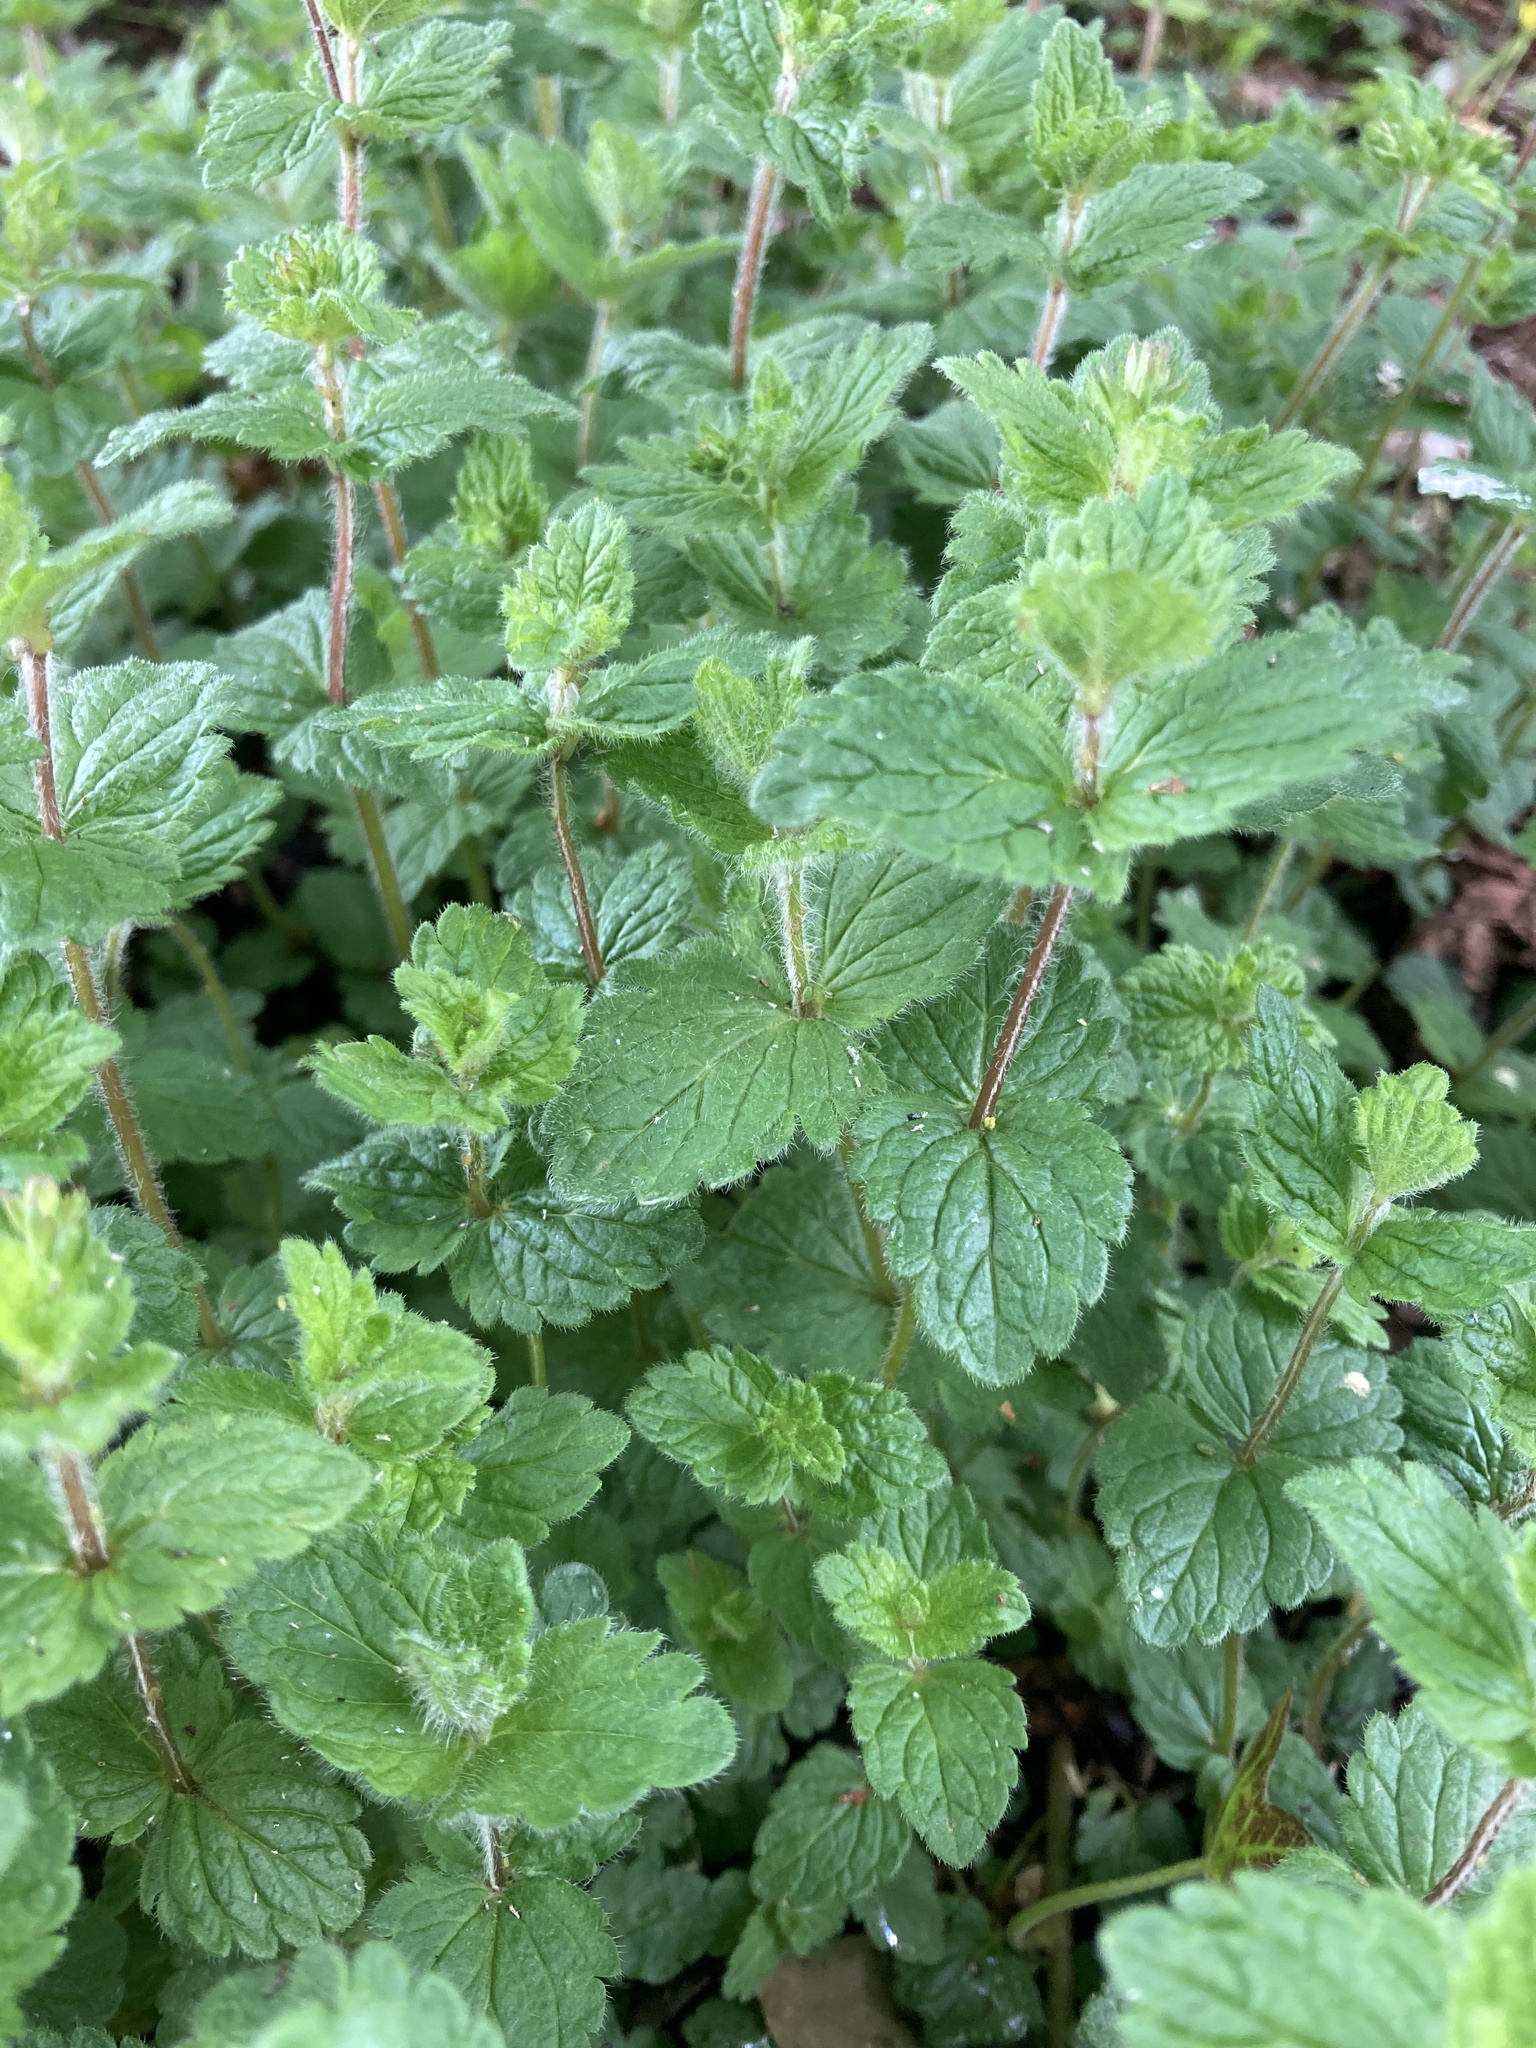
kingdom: Plantae
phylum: Tracheophyta
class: Magnoliopsida
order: Lamiales
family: Plantaginaceae
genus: Veronica
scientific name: Veronica chamaedrys
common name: Germander speedwell
